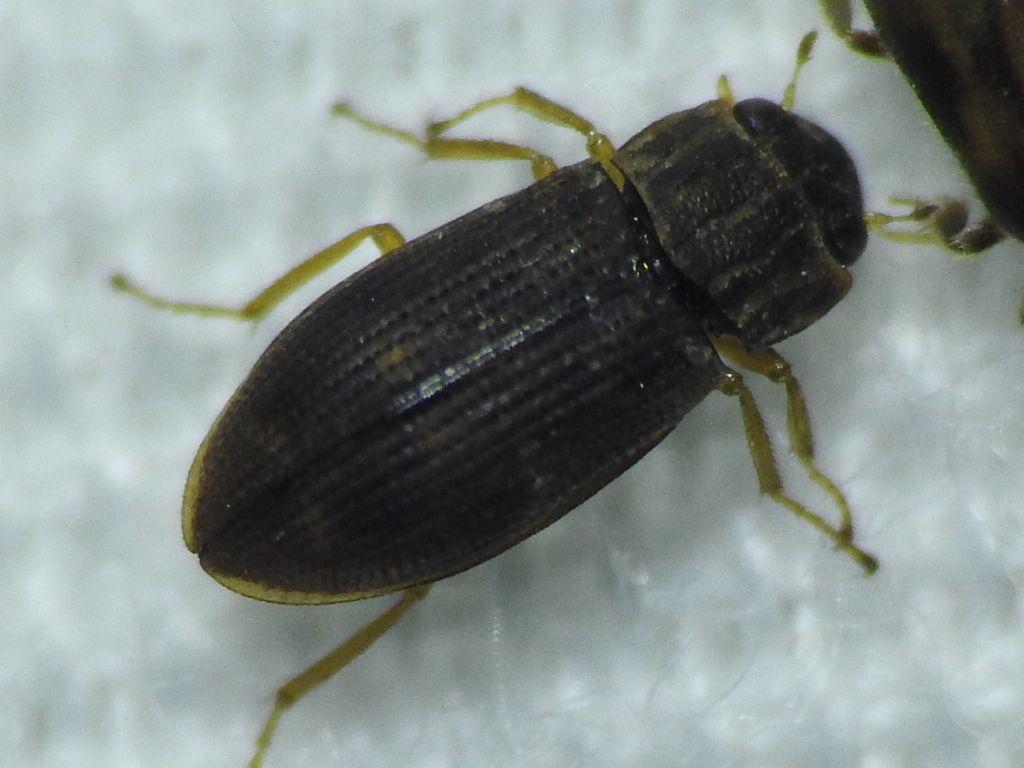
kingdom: Animalia
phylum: Arthropoda
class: Insecta
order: Coleoptera
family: Helophoridae
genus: Helophorus
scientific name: Helophorus
